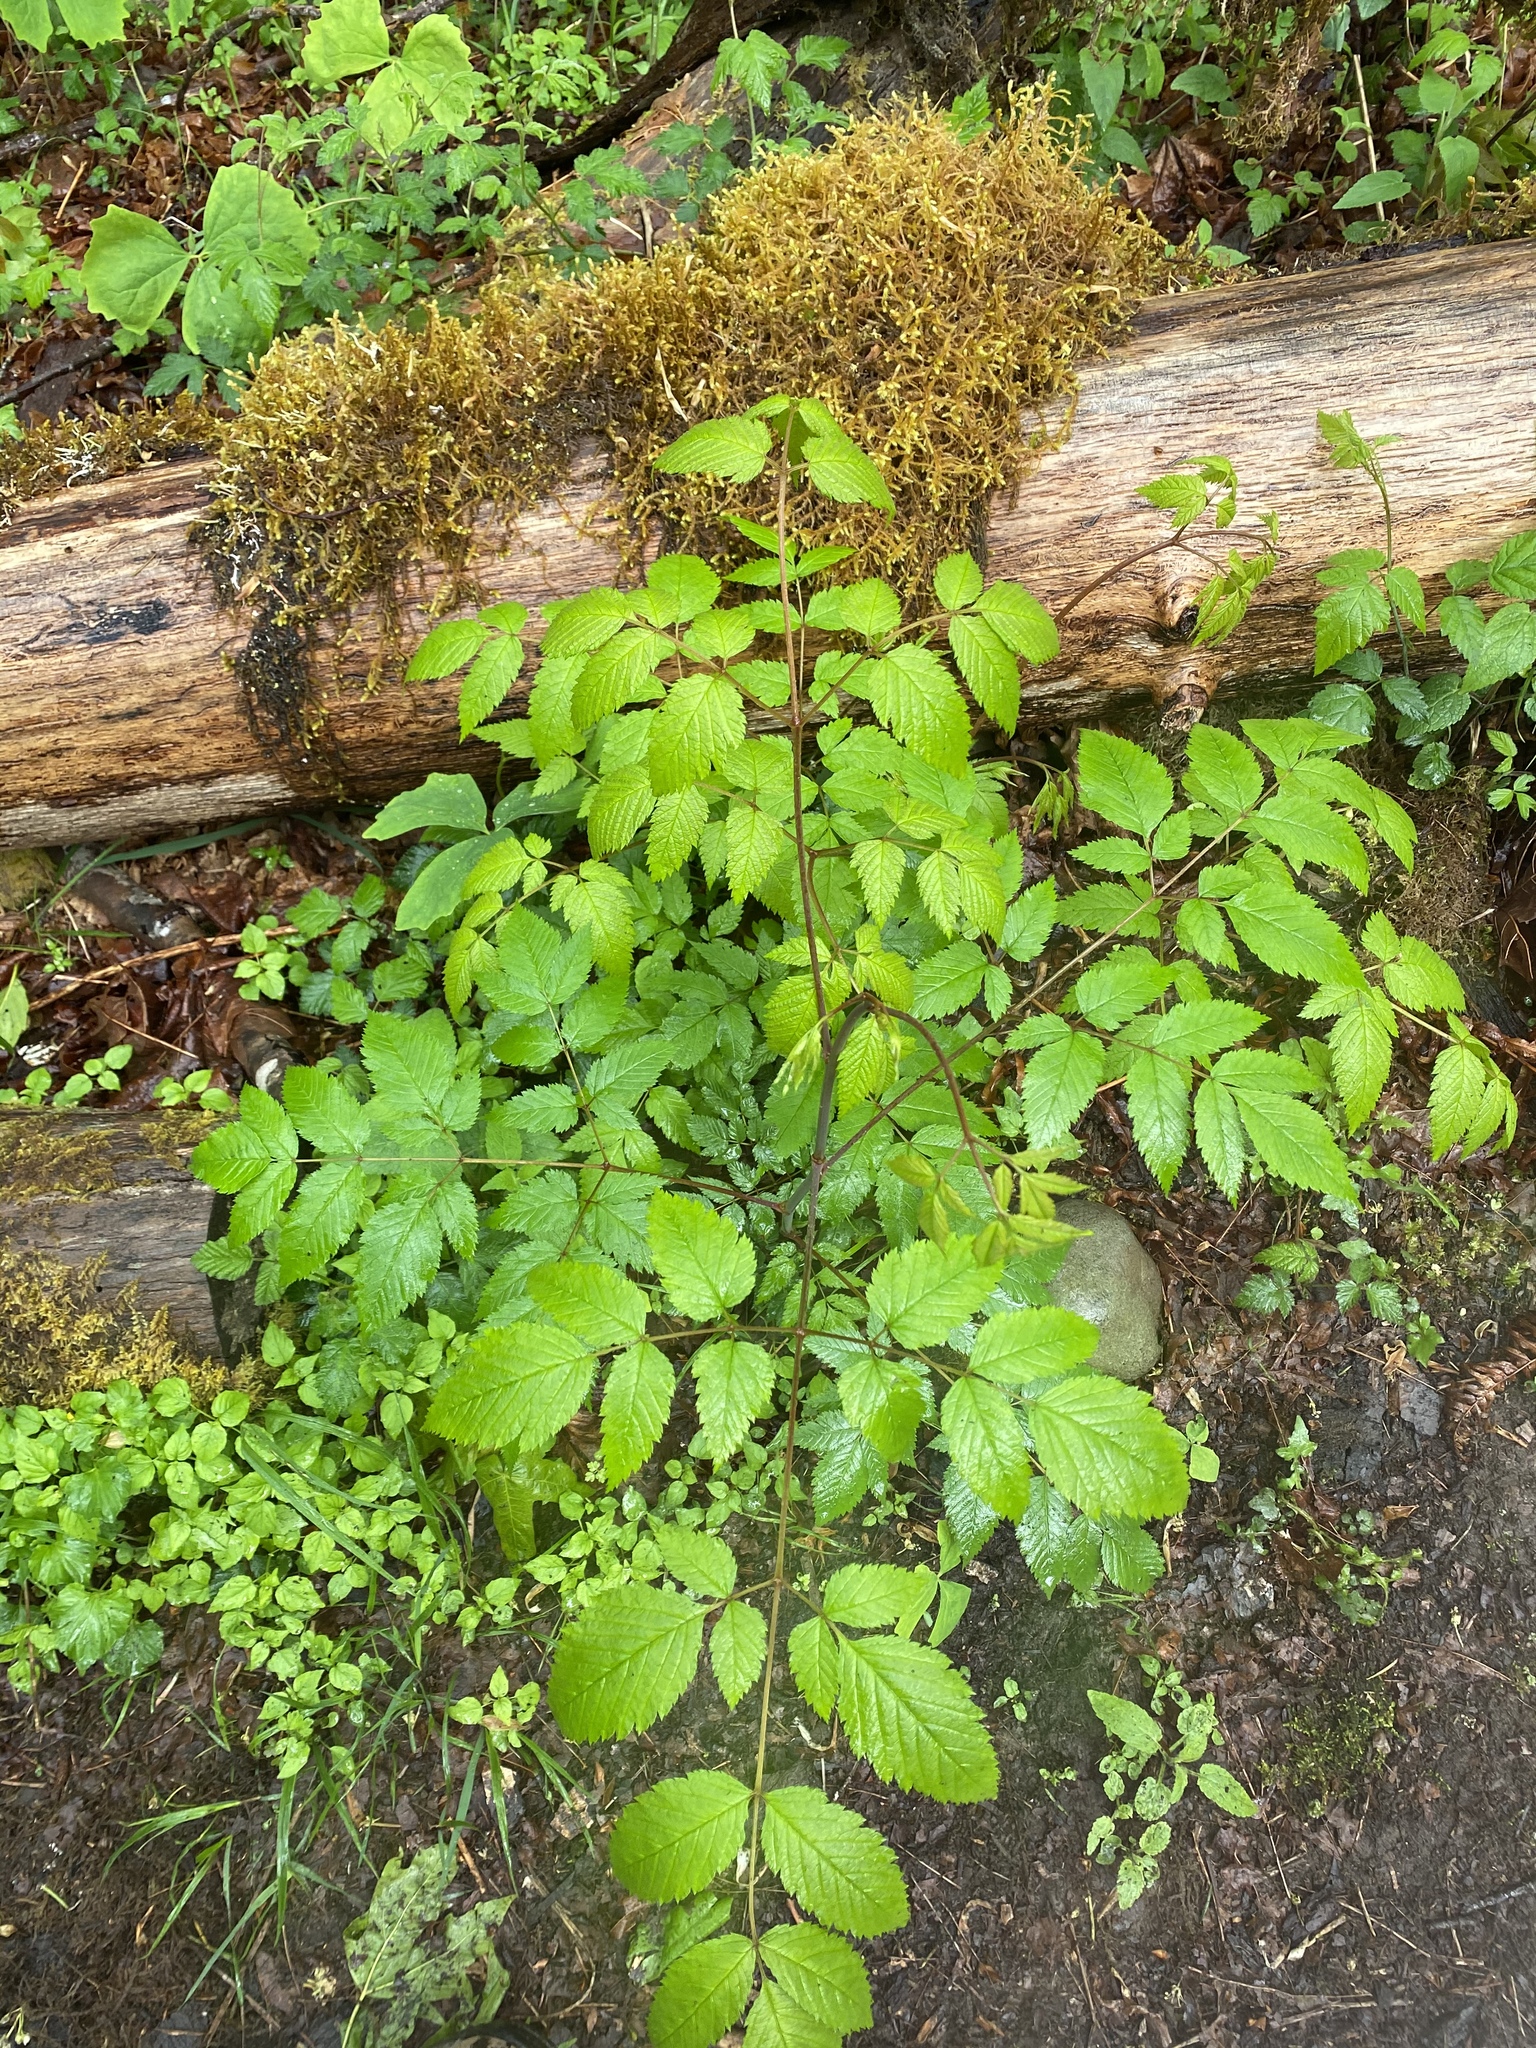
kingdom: Plantae
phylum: Tracheophyta
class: Magnoliopsida
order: Rosales
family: Rosaceae
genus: Aruncus
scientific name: Aruncus dioicus
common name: Buck's-beard
